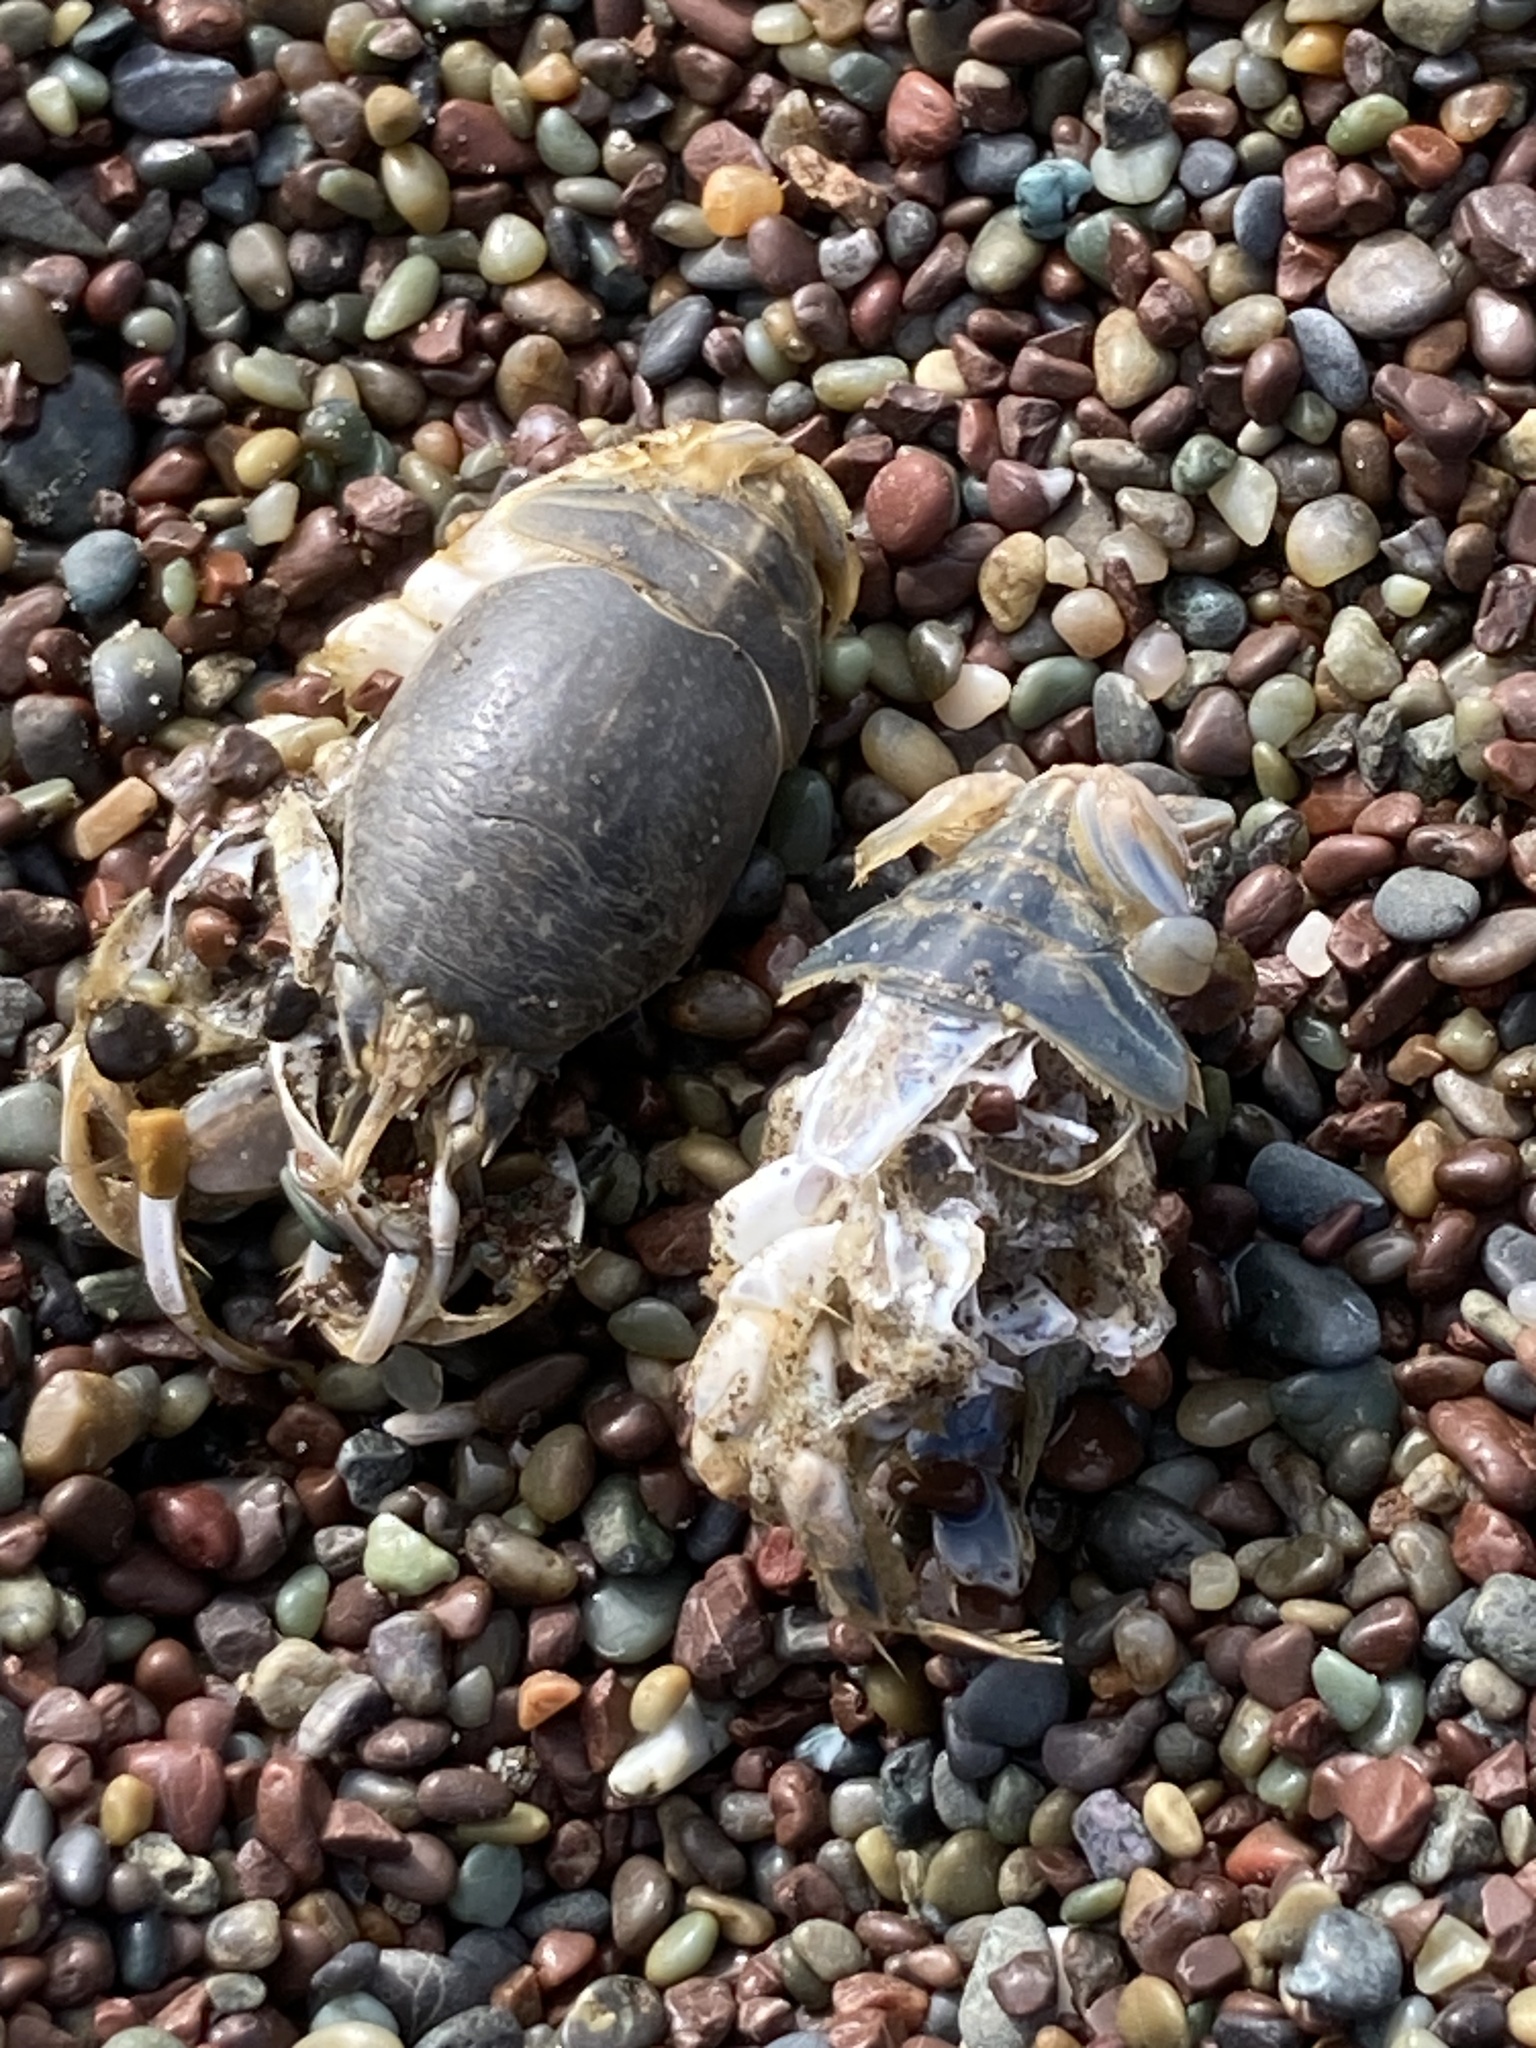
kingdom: Animalia
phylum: Arthropoda
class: Malacostraca
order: Decapoda
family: Hippidae
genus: Emerita
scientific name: Emerita analoga
